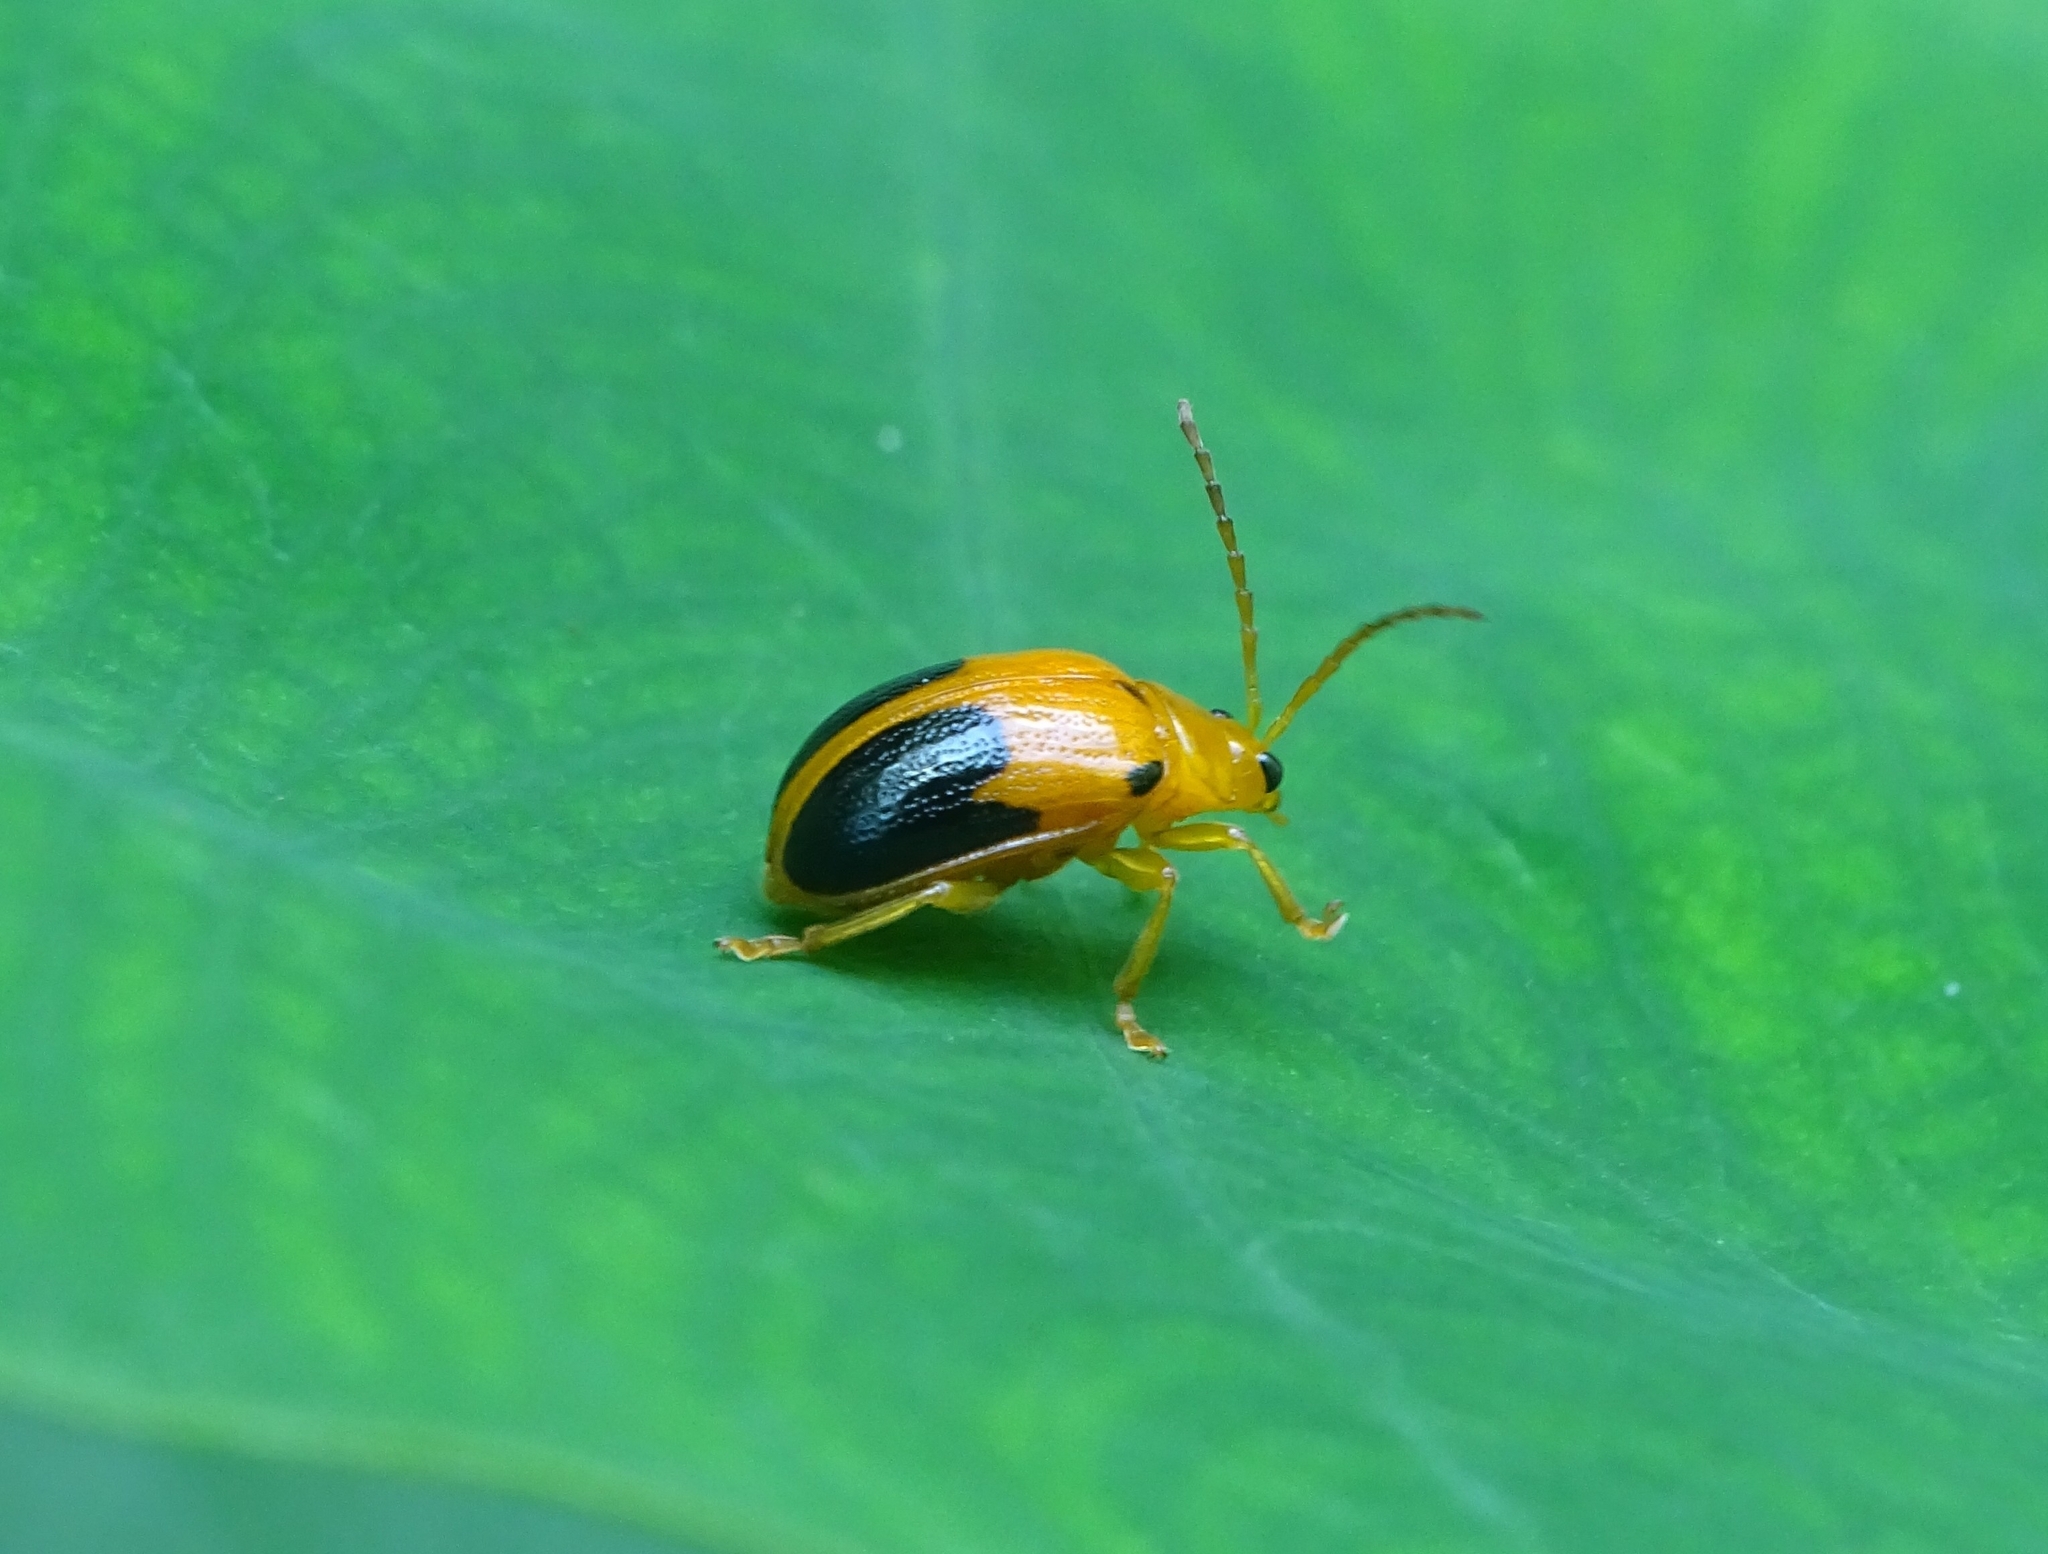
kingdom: Animalia
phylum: Arthropoda
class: Insecta
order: Coleoptera
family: Chrysomelidae
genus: Sphenoraia
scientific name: Sphenoraia
